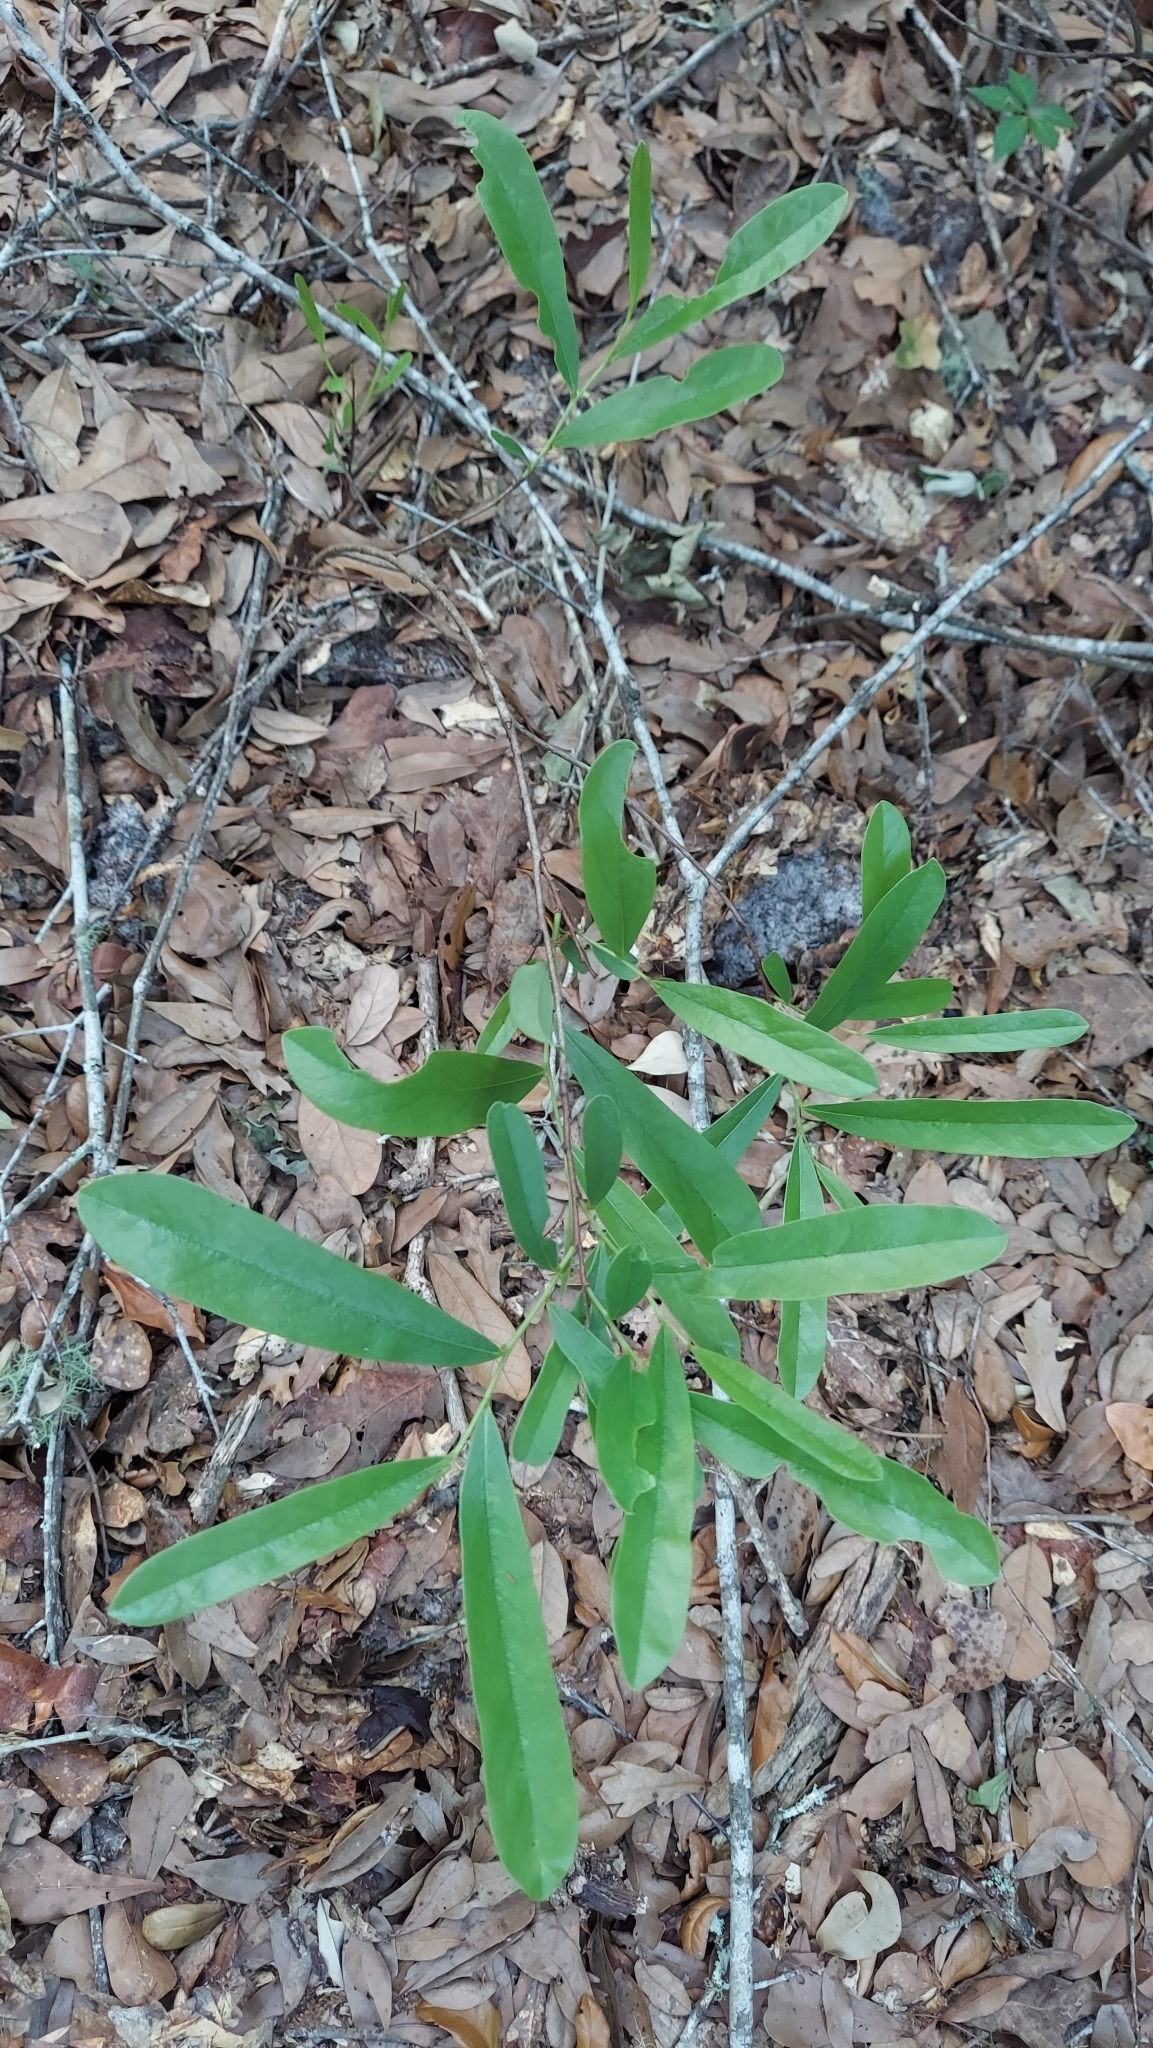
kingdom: Plantae
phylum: Tracheophyta
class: Magnoliopsida
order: Magnoliales
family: Annonaceae
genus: Asimina
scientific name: Asimina pygmaea
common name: Dwarf pawpaw
